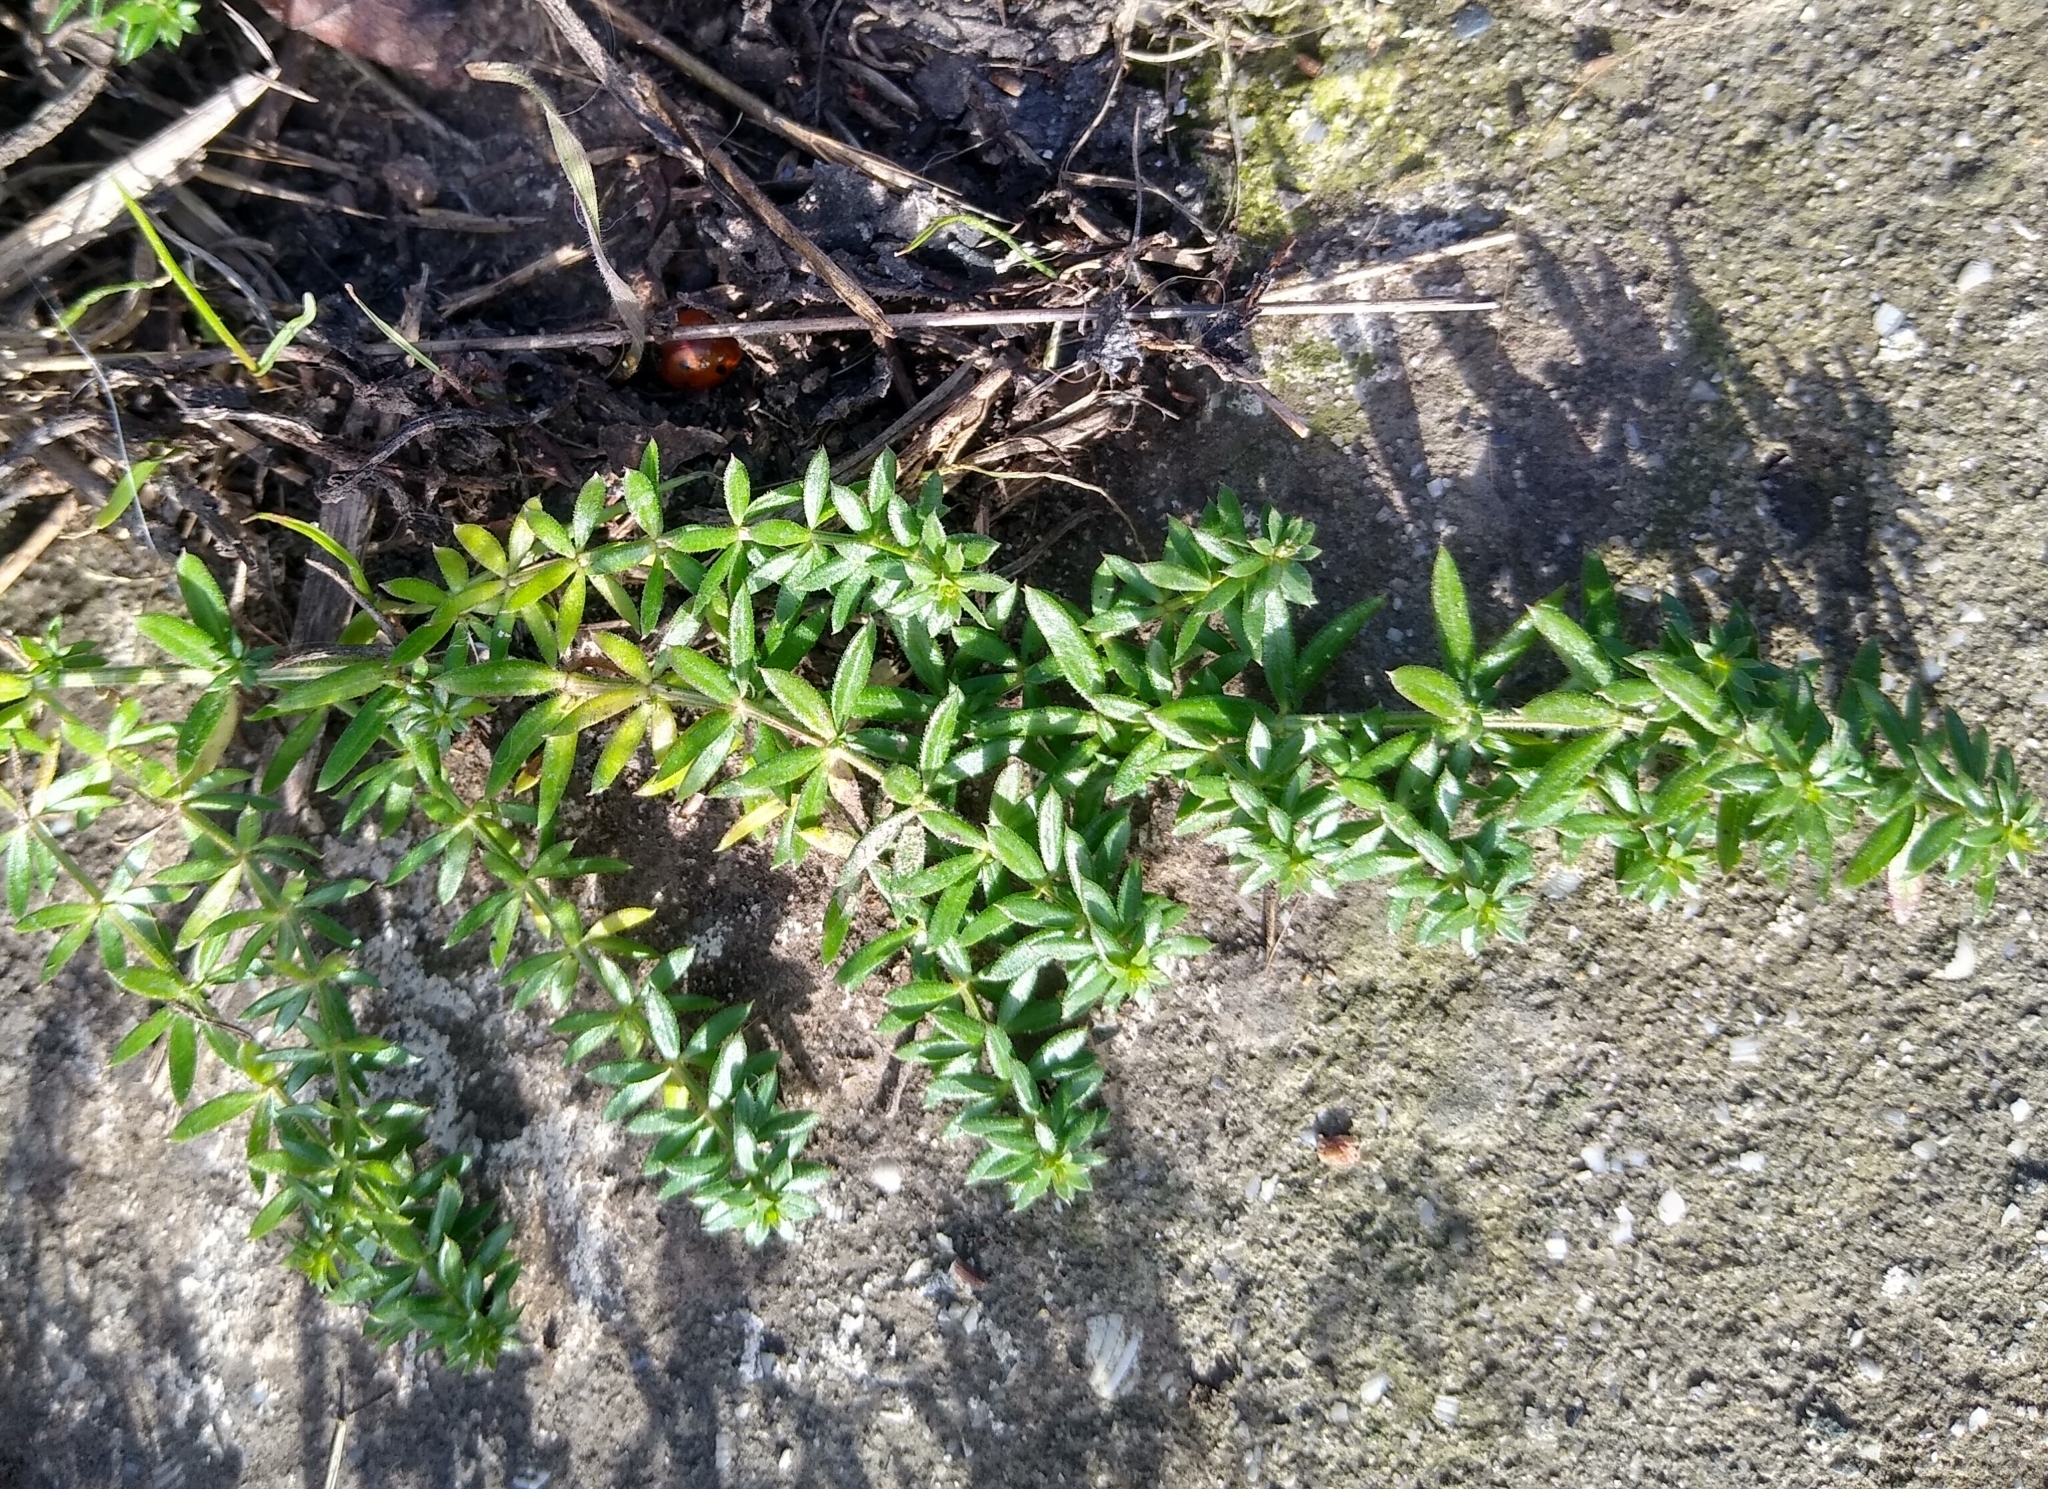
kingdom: Plantae
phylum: Tracheophyta
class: Magnoliopsida
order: Gentianales
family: Rubiaceae
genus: Galium
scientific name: Galium humifusum
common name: Spreading bedstraw
